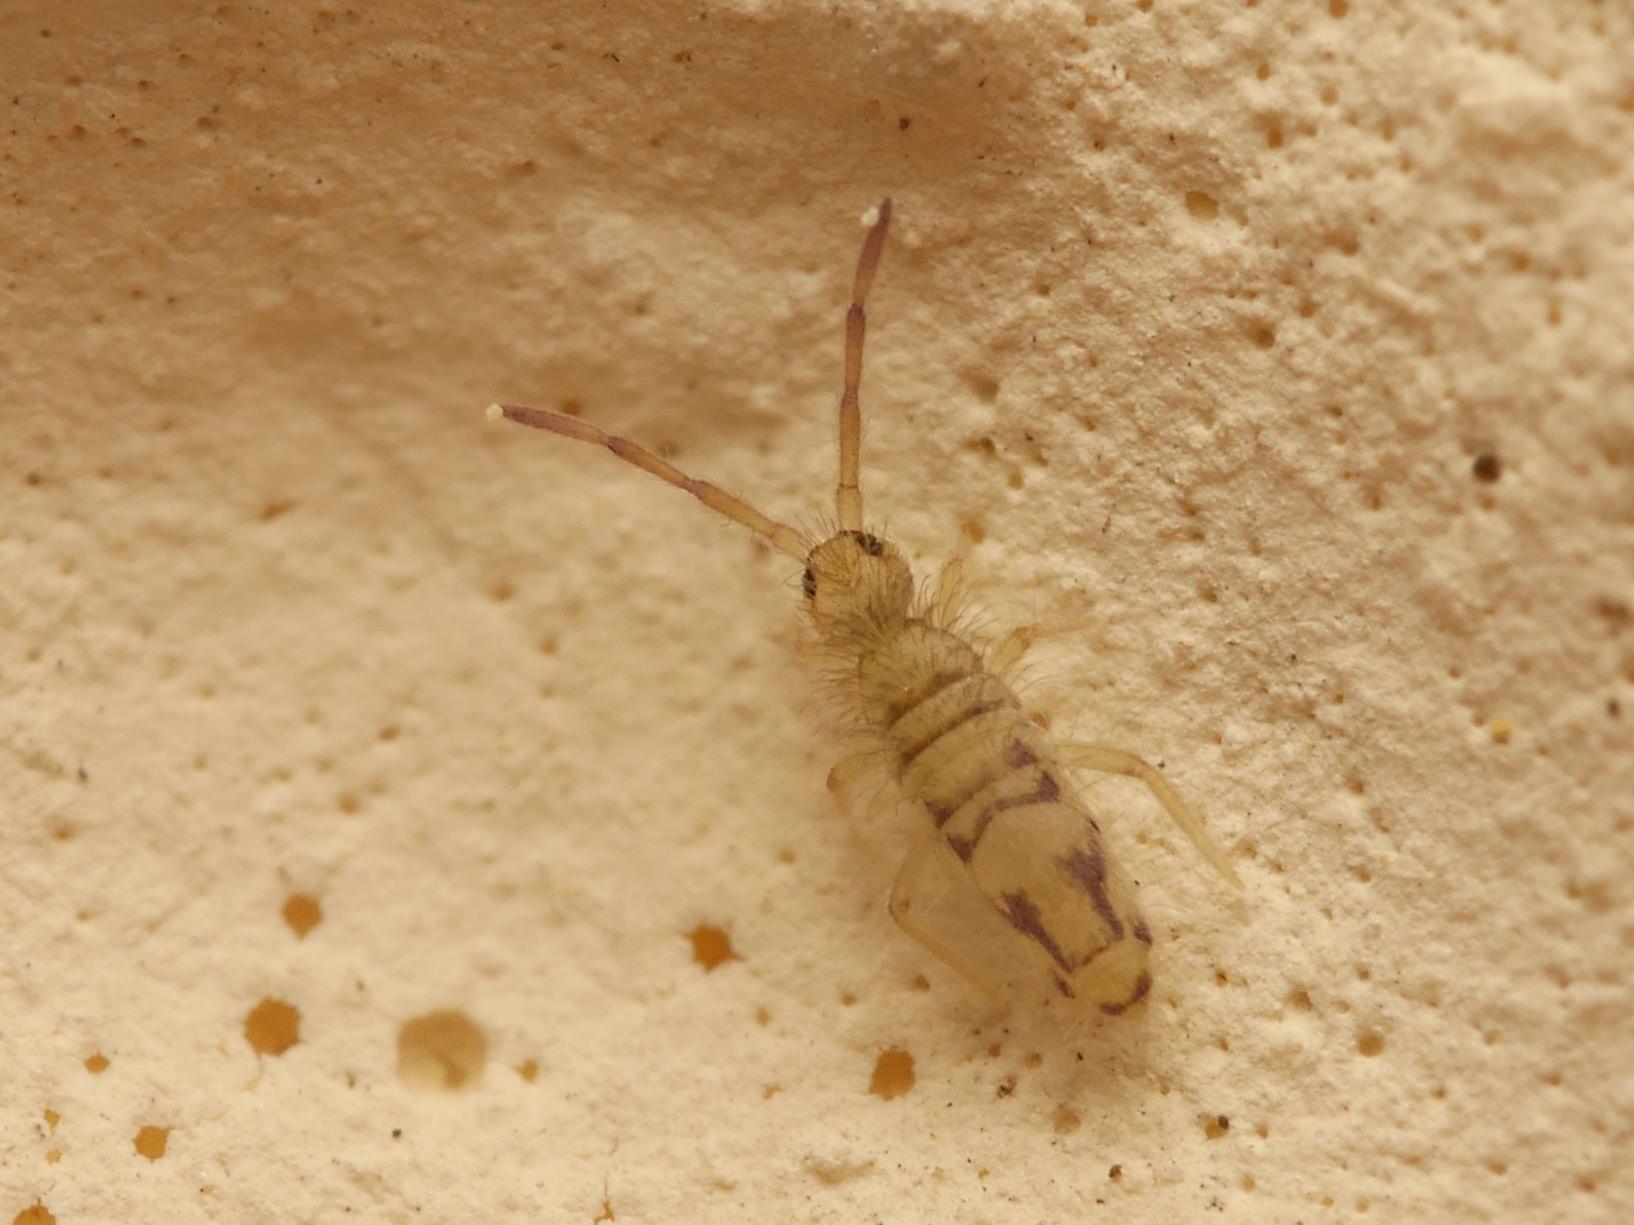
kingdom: Animalia
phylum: Arthropoda
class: Collembola
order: Entomobryomorpha
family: Entomobryidae
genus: Entomobrya
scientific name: Entomobrya nivalis
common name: Cosmopolitan springtail
